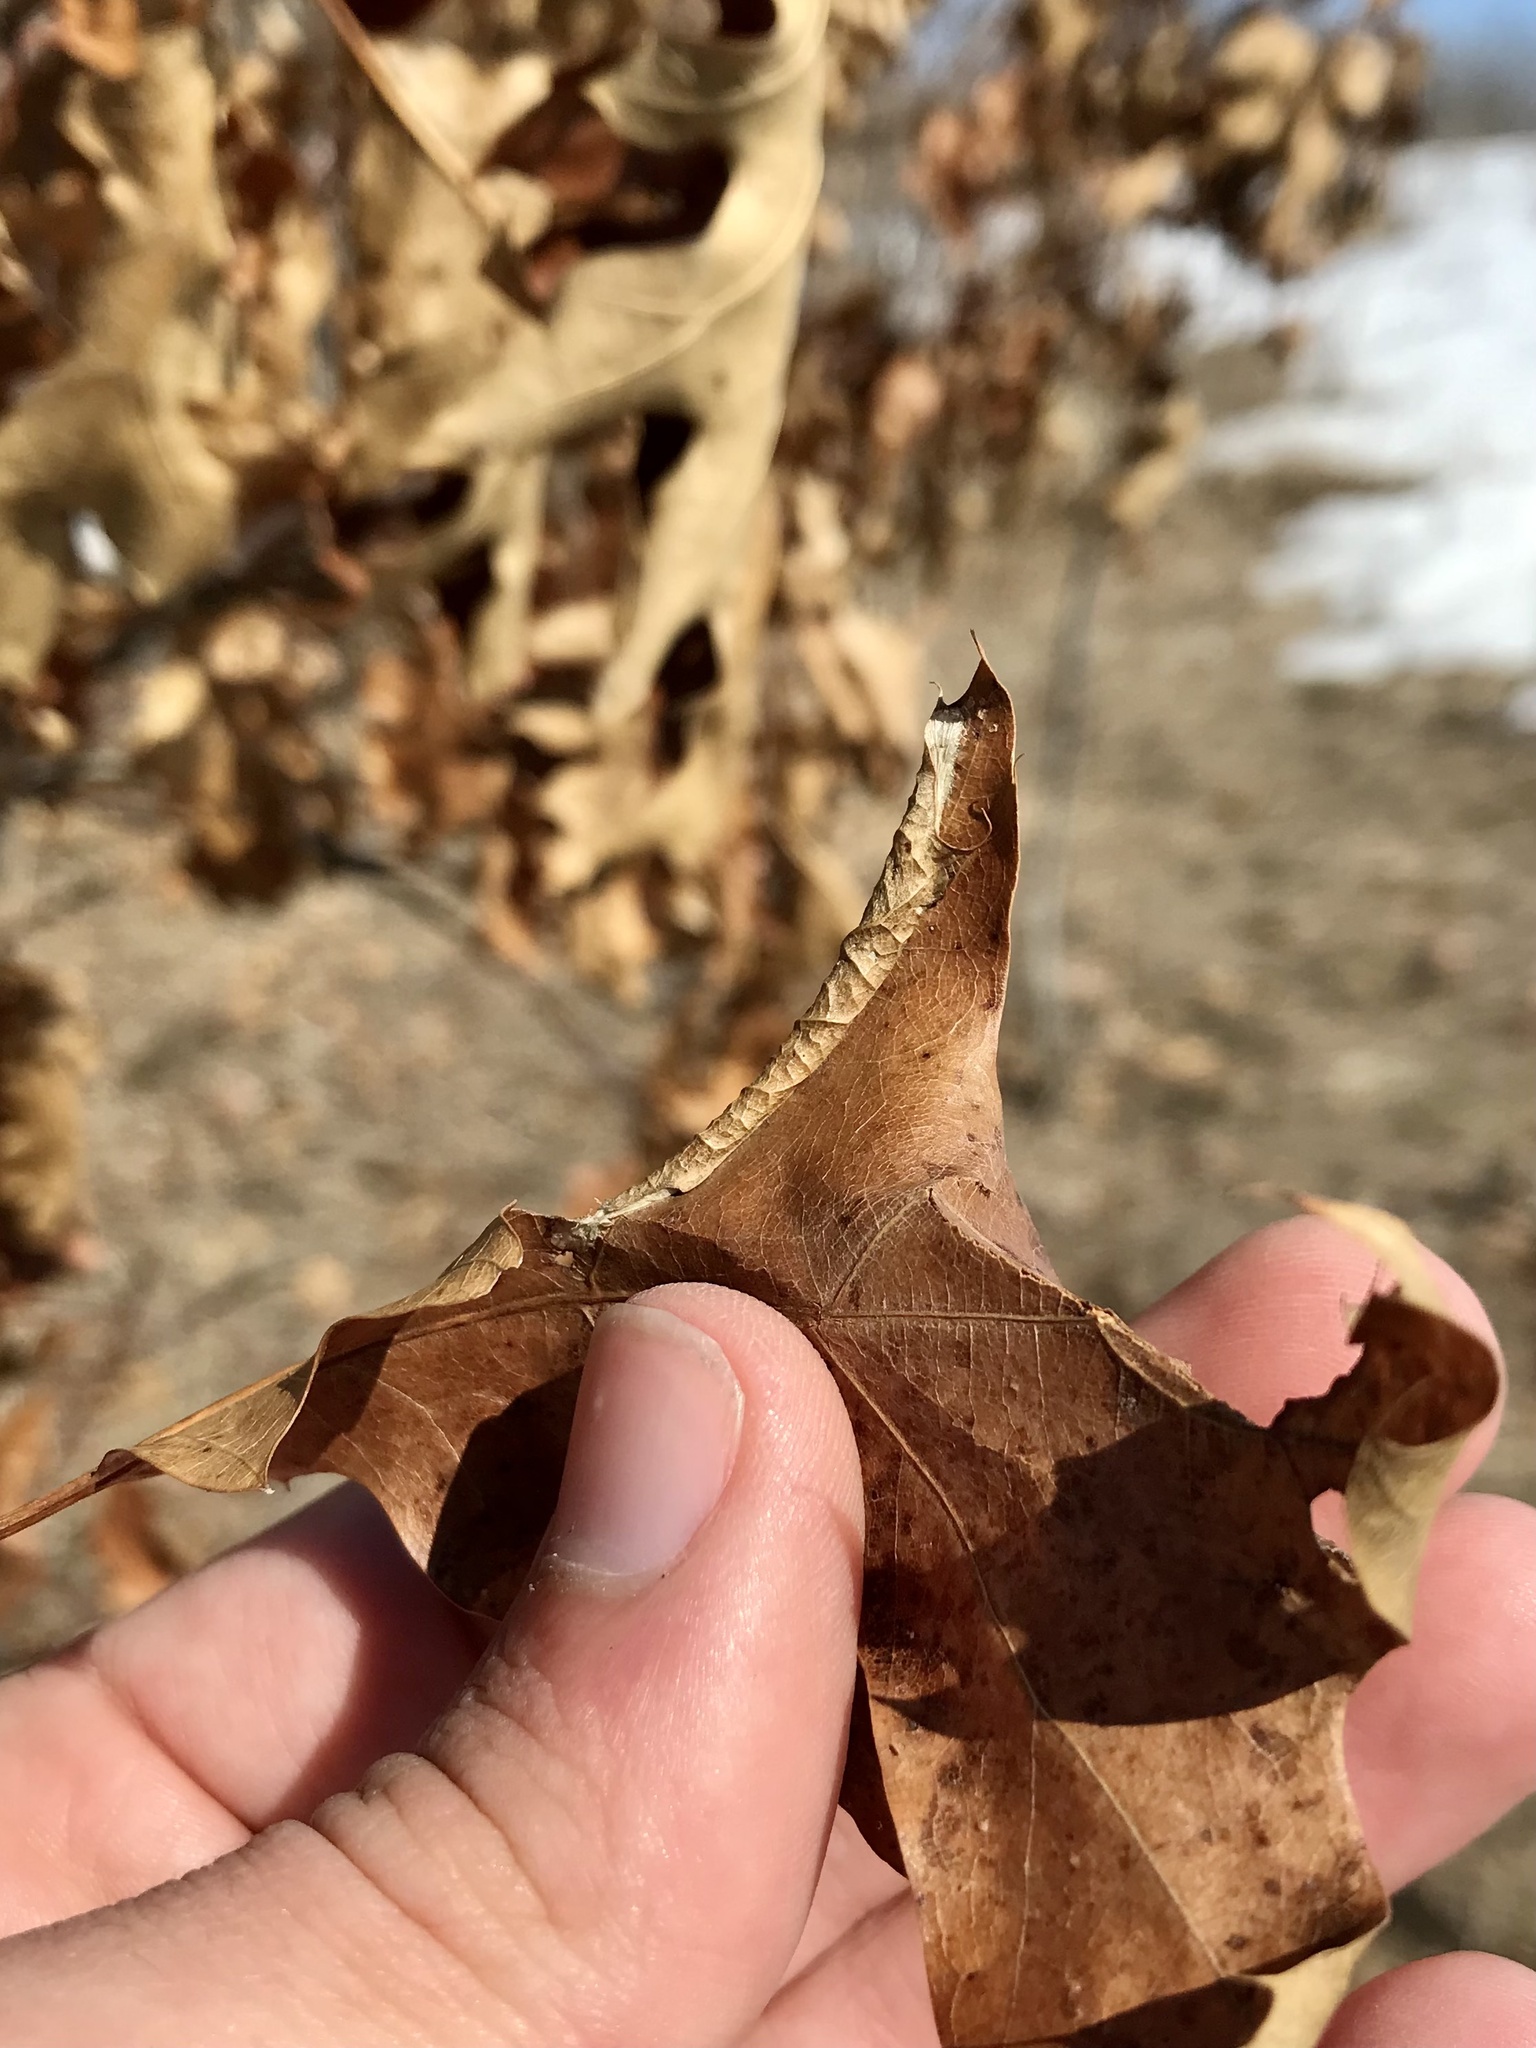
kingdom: Animalia
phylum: Arthropoda
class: Insecta
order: Lepidoptera
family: Tischeriidae
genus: Coptotriche
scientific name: Coptotriche citrinipennella
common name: The golden sweeper
